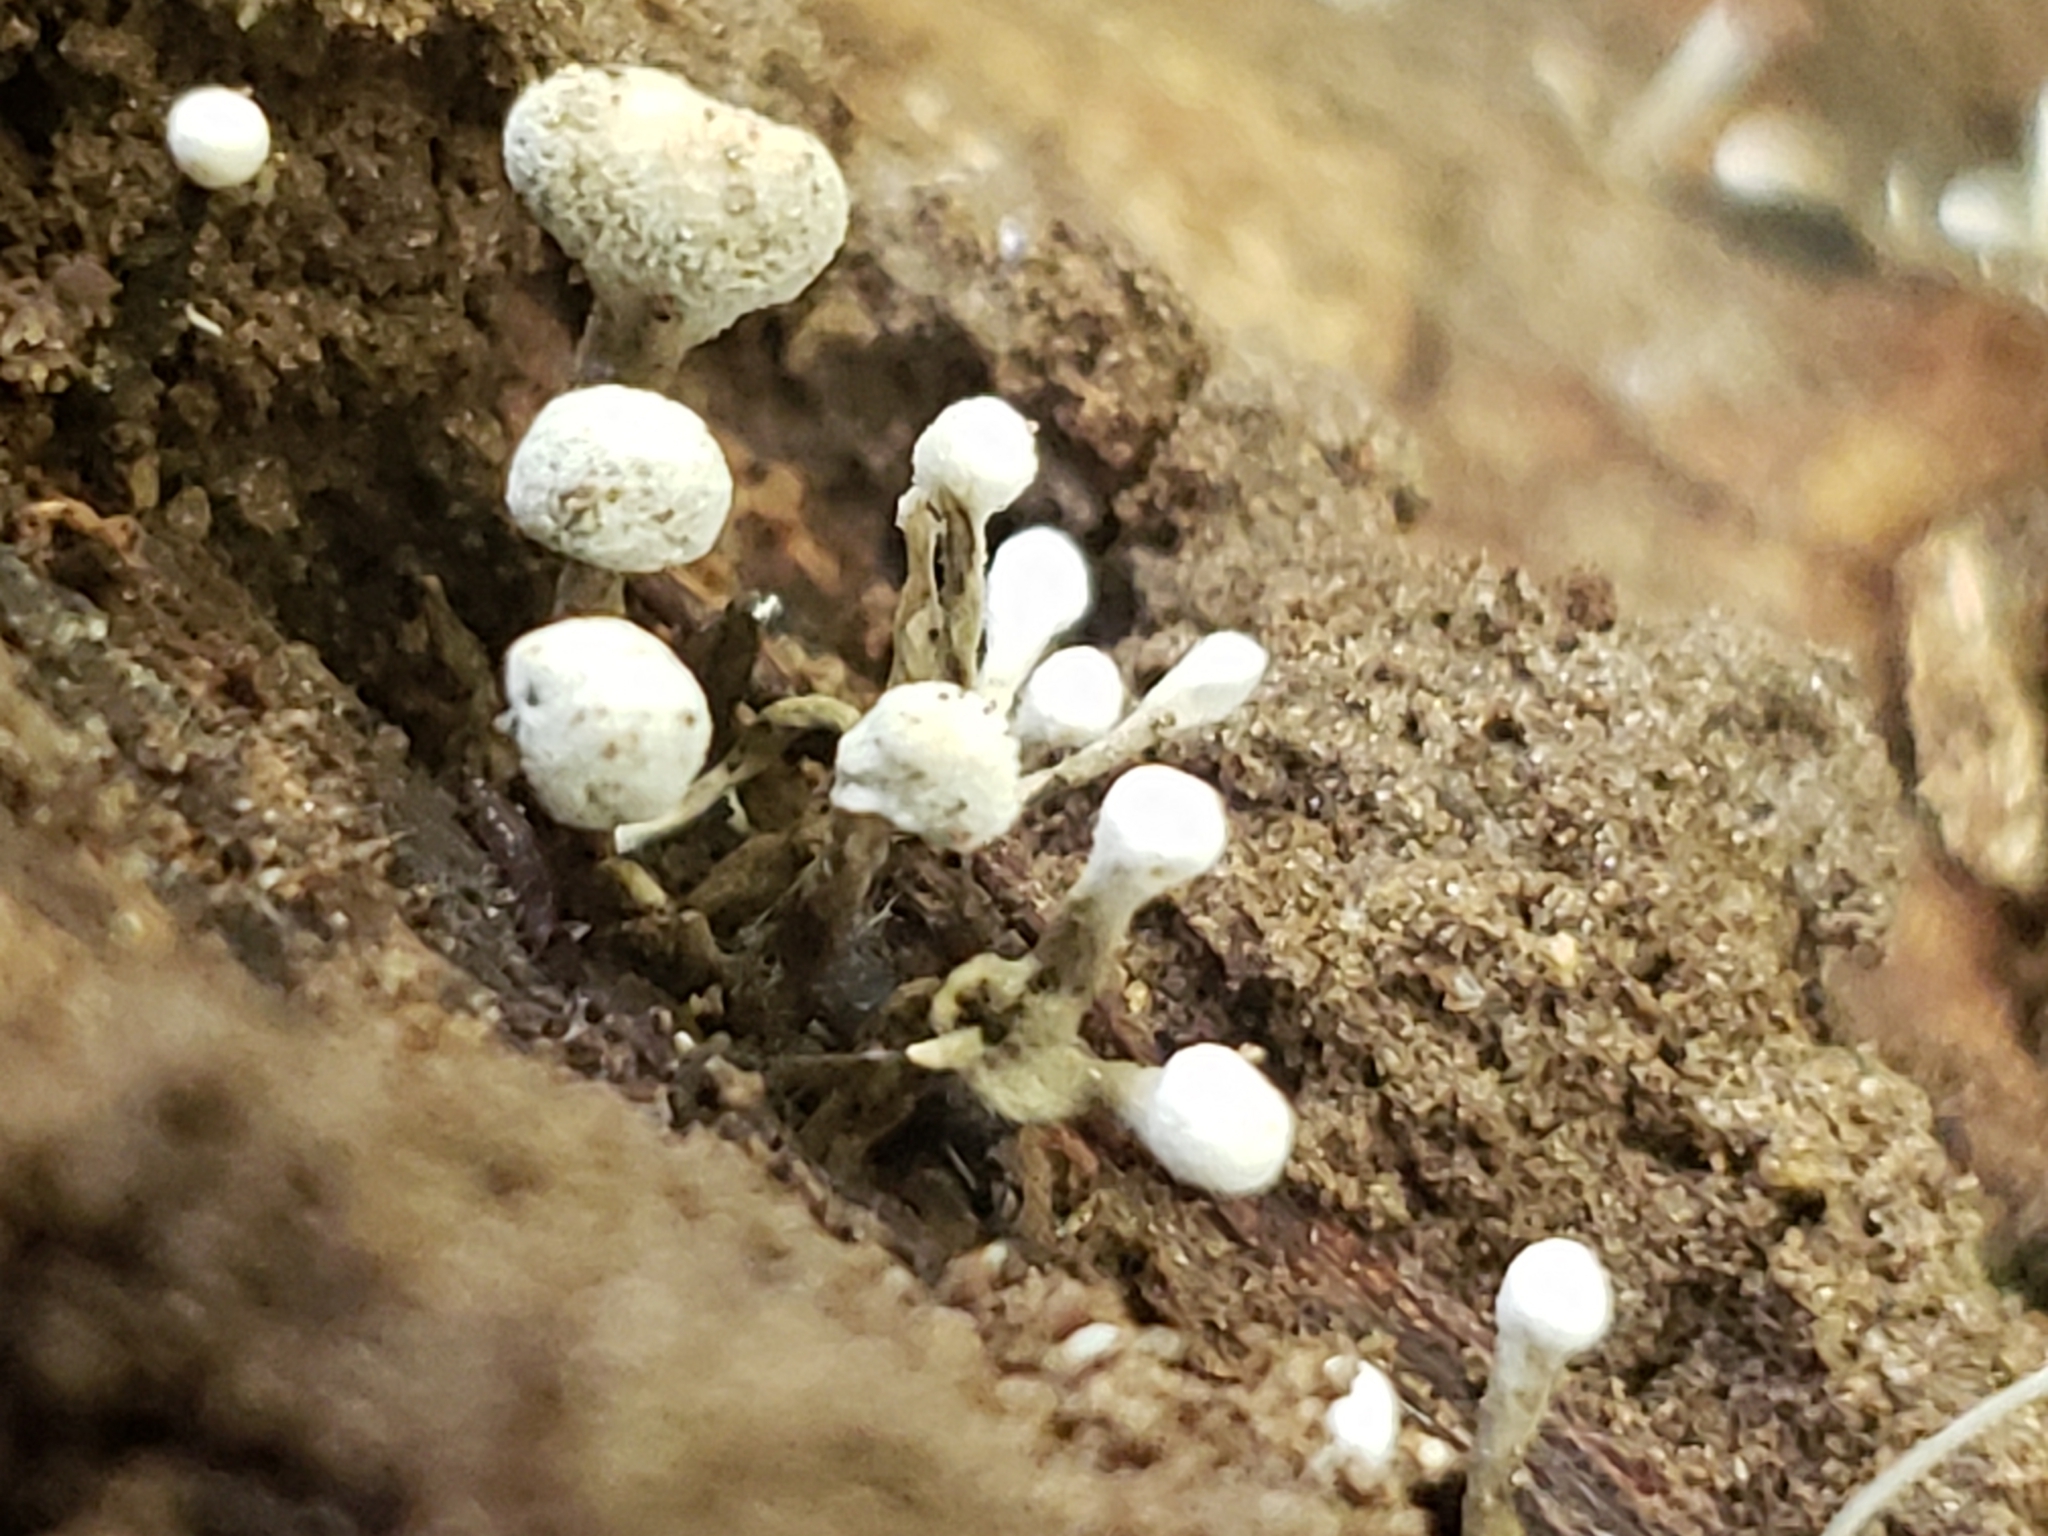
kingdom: Fungi
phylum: Basidiomycota
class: Atractiellomycetes
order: Atractiellales
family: Phleogenaceae
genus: Phleogena
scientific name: Phleogena faginea
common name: Fenugreek stalkball
